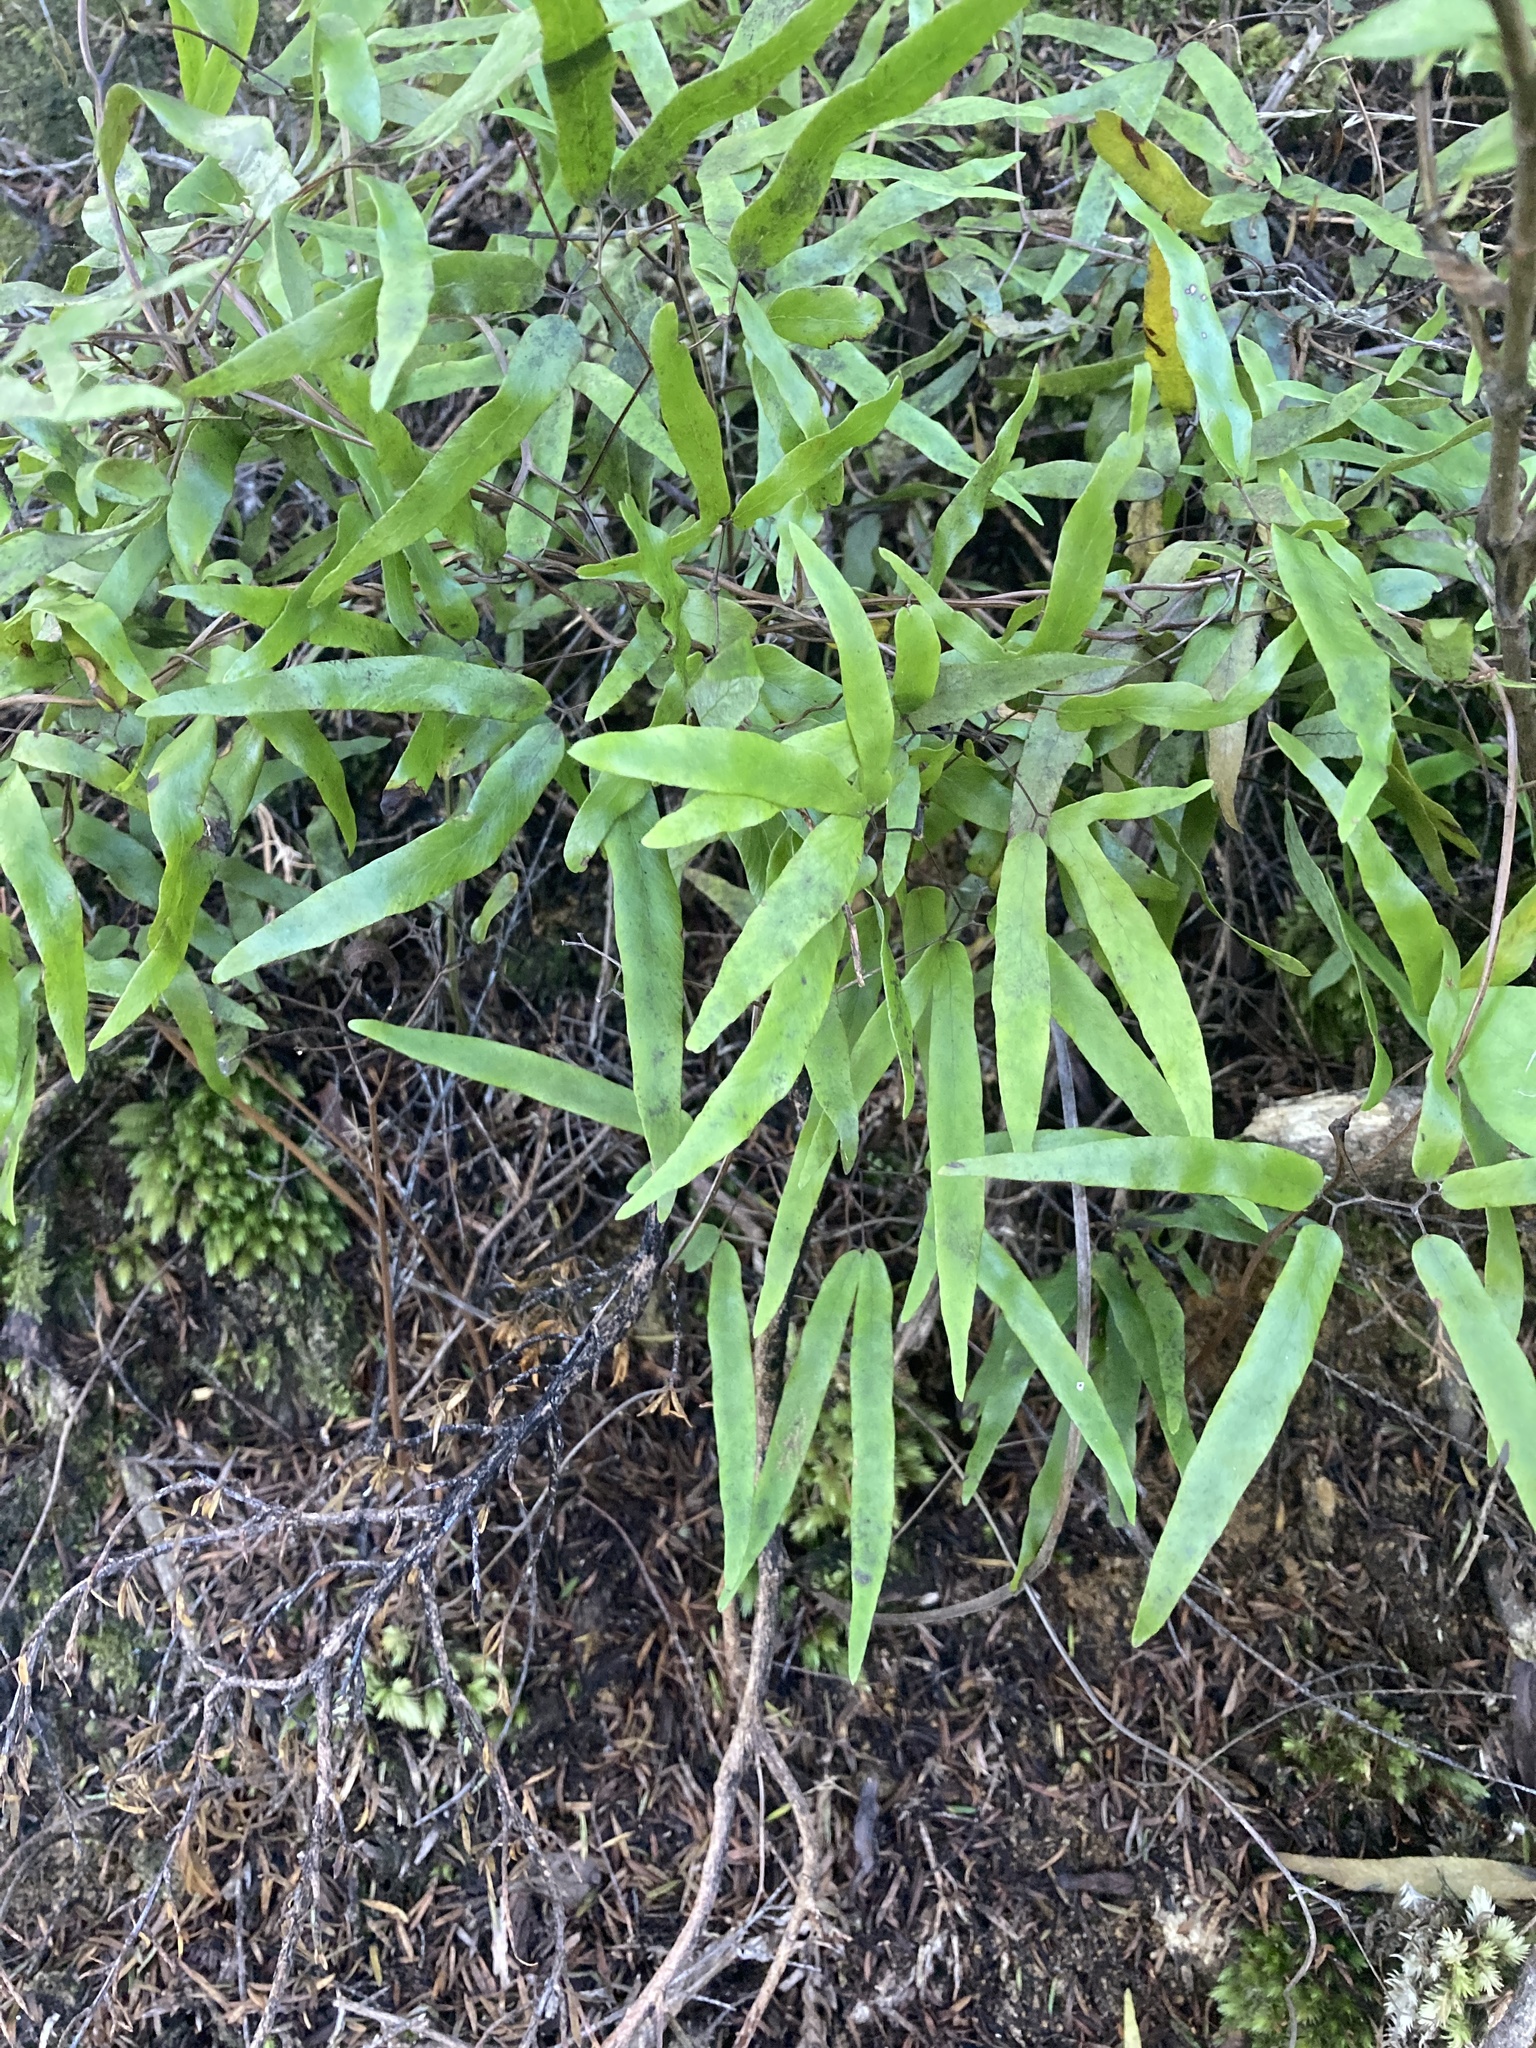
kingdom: Plantae
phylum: Tracheophyta
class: Polypodiopsida
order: Schizaeales
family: Lygodiaceae
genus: Lygodium
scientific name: Lygodium articulatum
